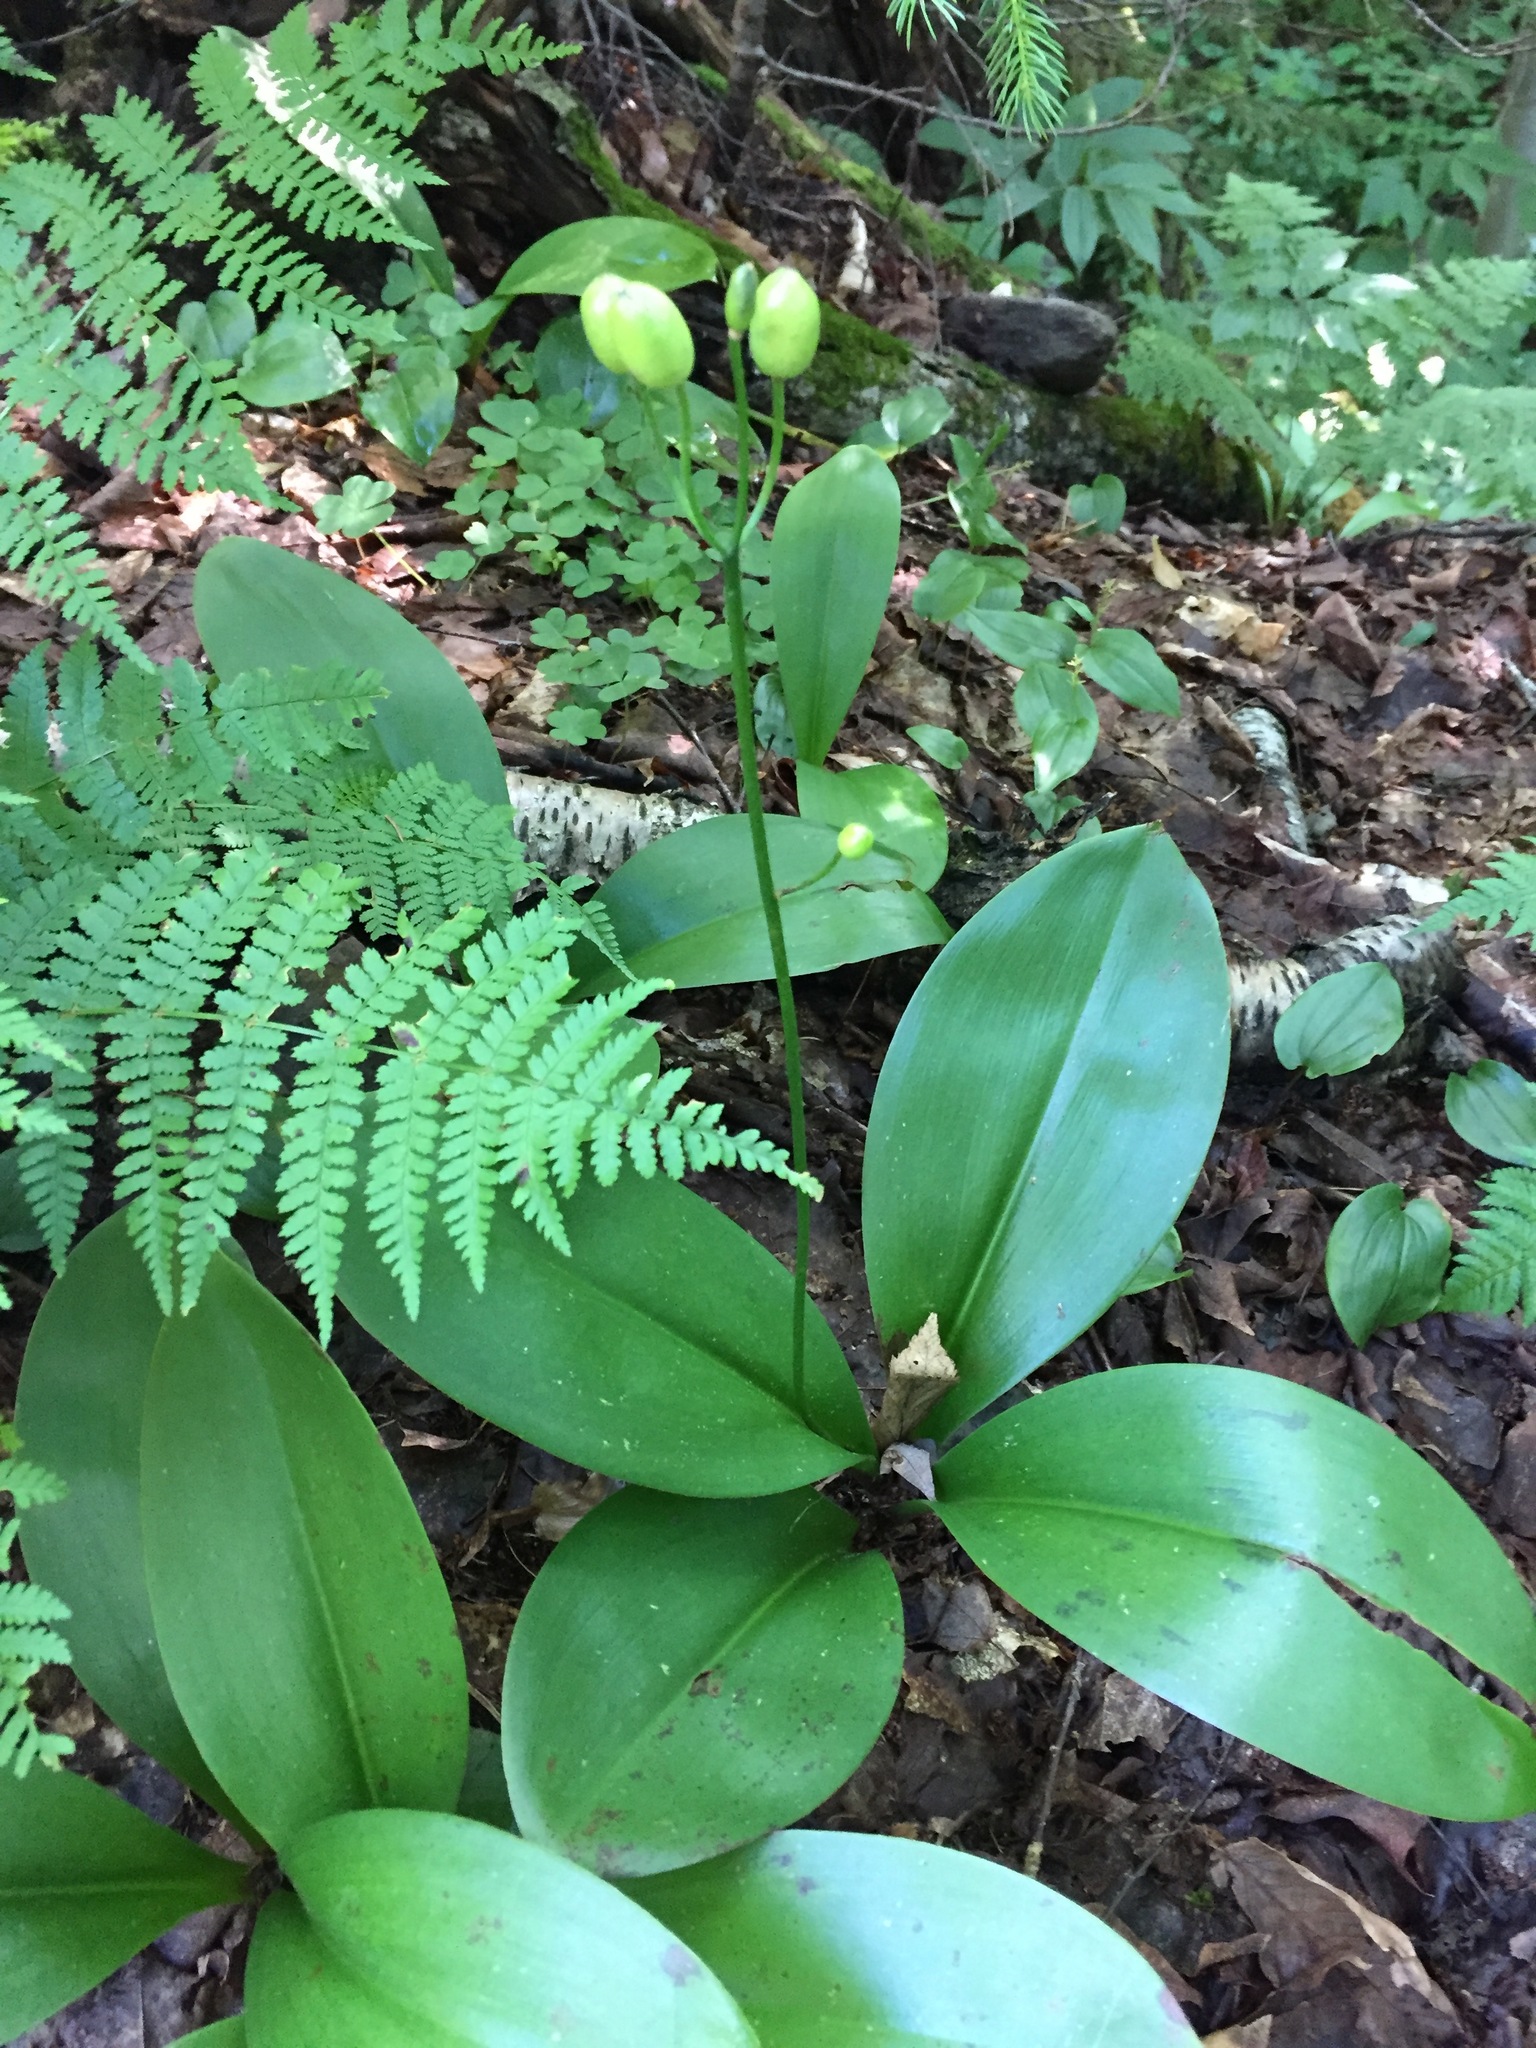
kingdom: Plantae
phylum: Tracheophyta
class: Liliopsida
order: Liliales
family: Liliaceae
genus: Clintonia
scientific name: Clintonia borealis
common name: Yellow clintonia
